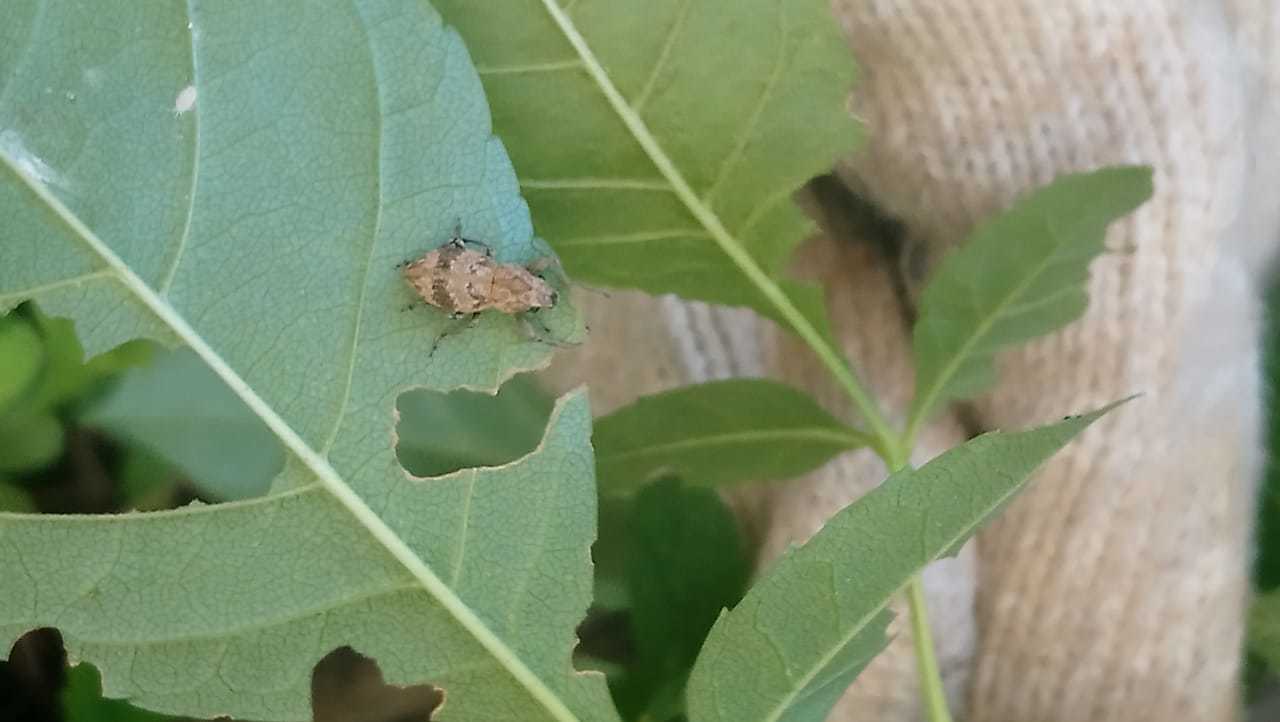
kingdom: Animalia
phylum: Arthropoda
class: Insecta
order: Coleoptera
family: Curculionidae
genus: Pantomorus
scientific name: Pantomorus
